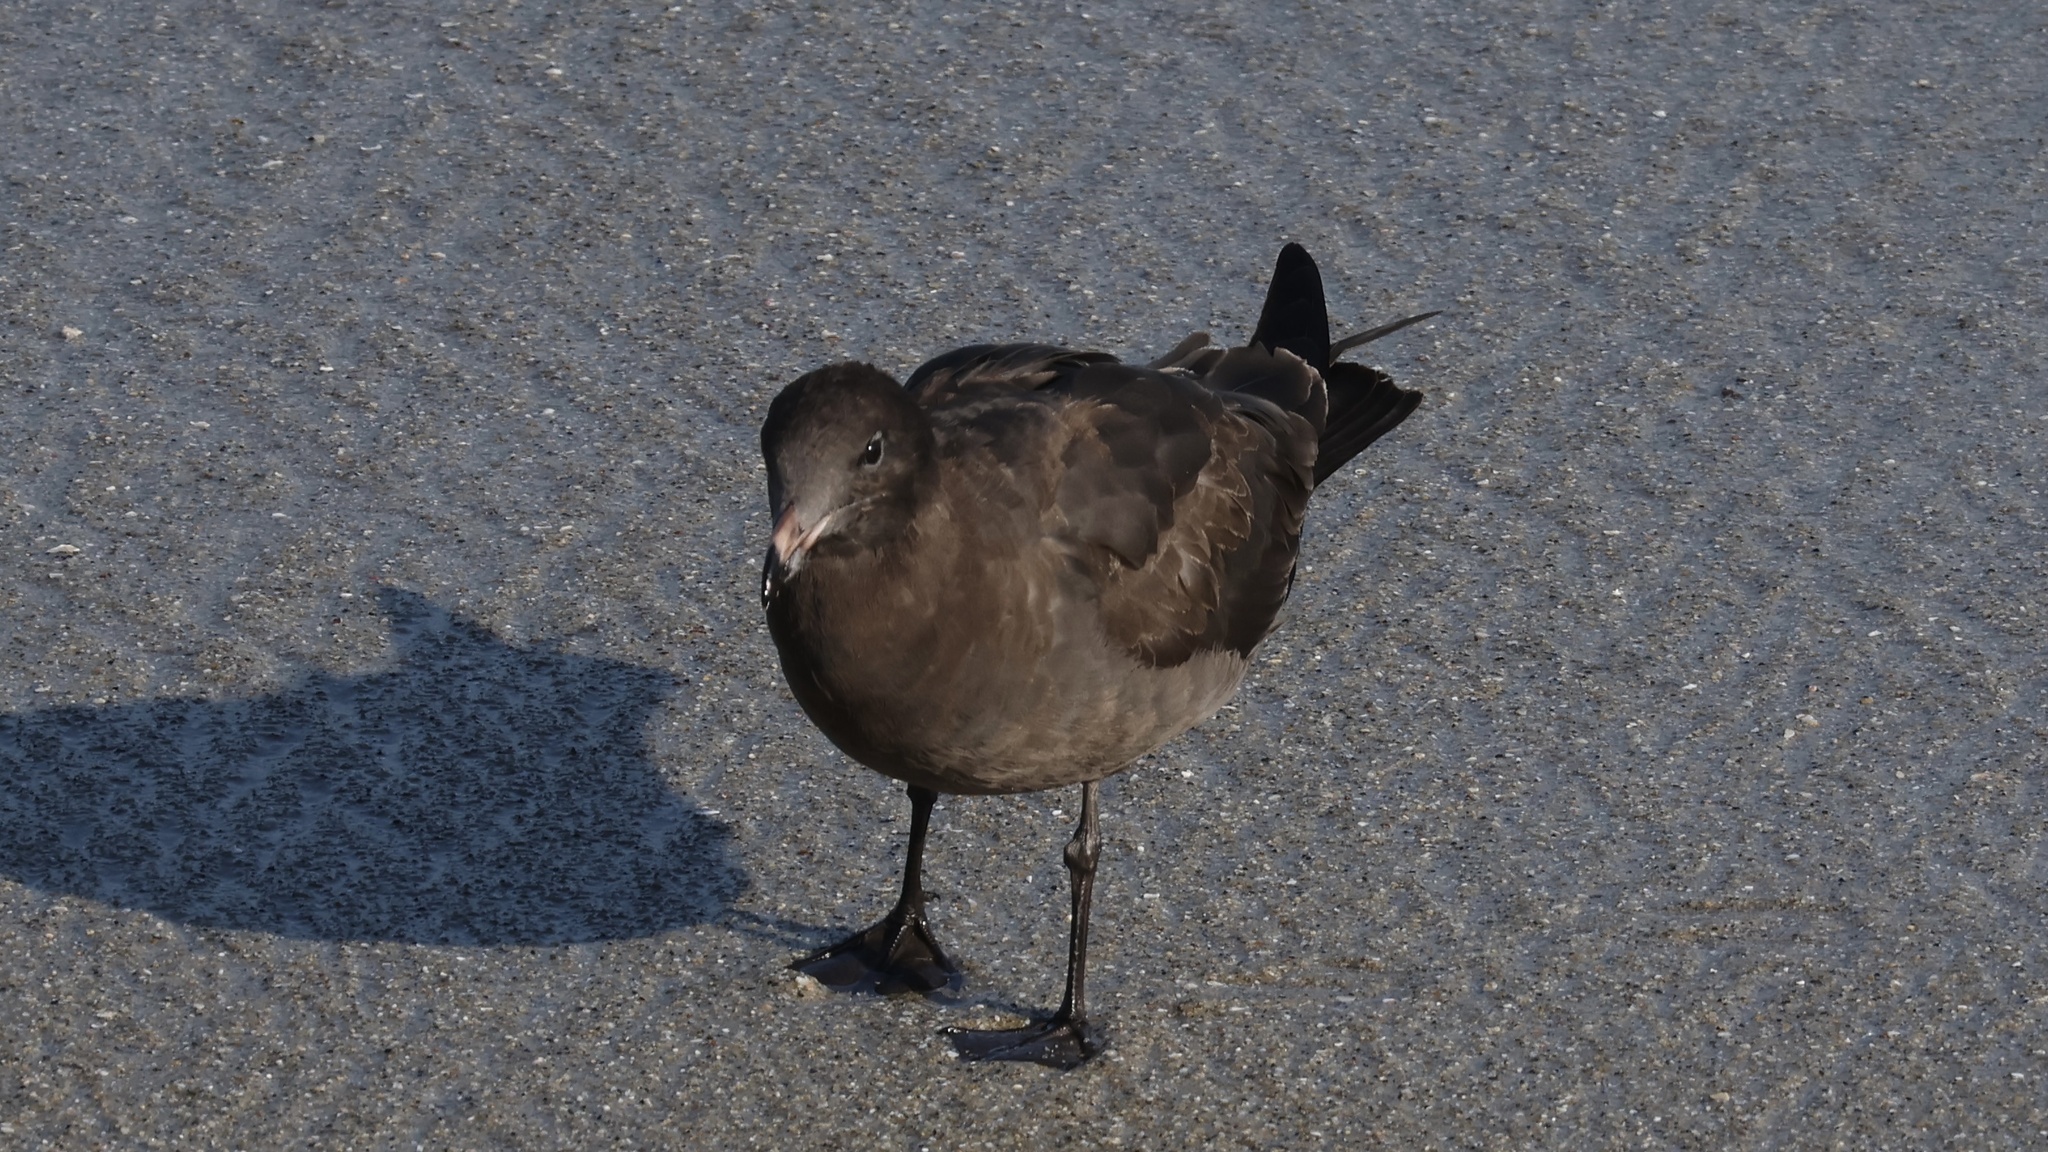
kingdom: Animalia
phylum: Chordata
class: Aves
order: Charadriiformes
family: Laridae
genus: Larus
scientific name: Larus heermanni
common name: Heermann's gull
